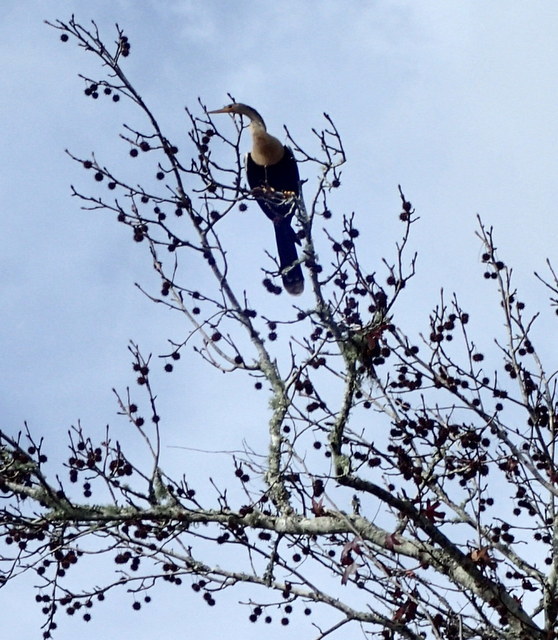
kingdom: Animalia
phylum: Chordata
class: Aves
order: Suliformes
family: Anhingidae
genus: Anhinga
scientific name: Anhinga anhinga
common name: Anhinga
